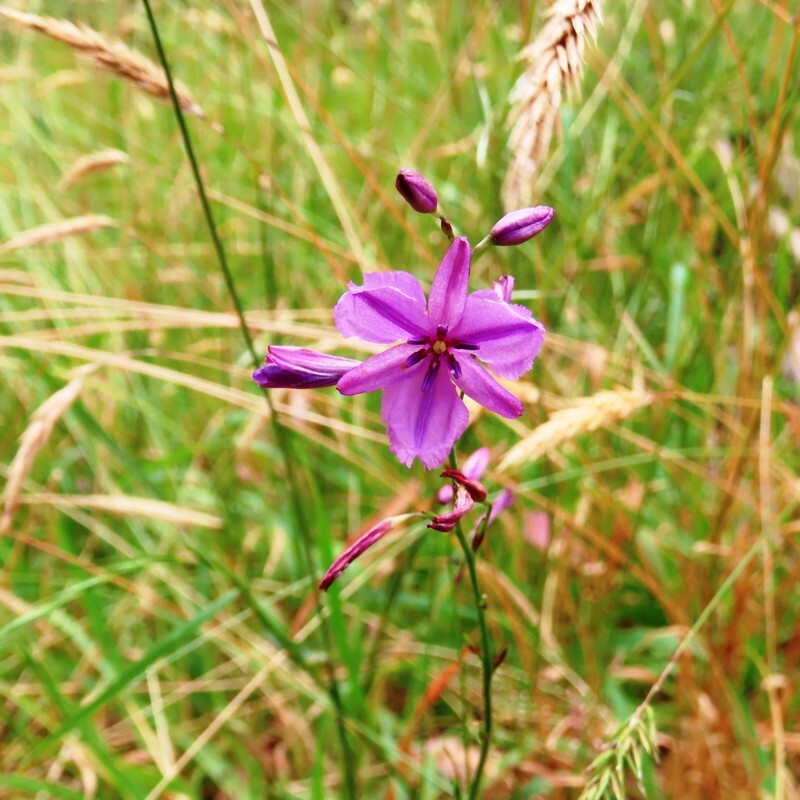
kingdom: Plantae
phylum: Tracheophyta
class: Liliopsida
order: Asparagales
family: Asparagaceae
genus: Arthropodium
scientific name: Arthropodium strictum
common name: Chocolate-lily
